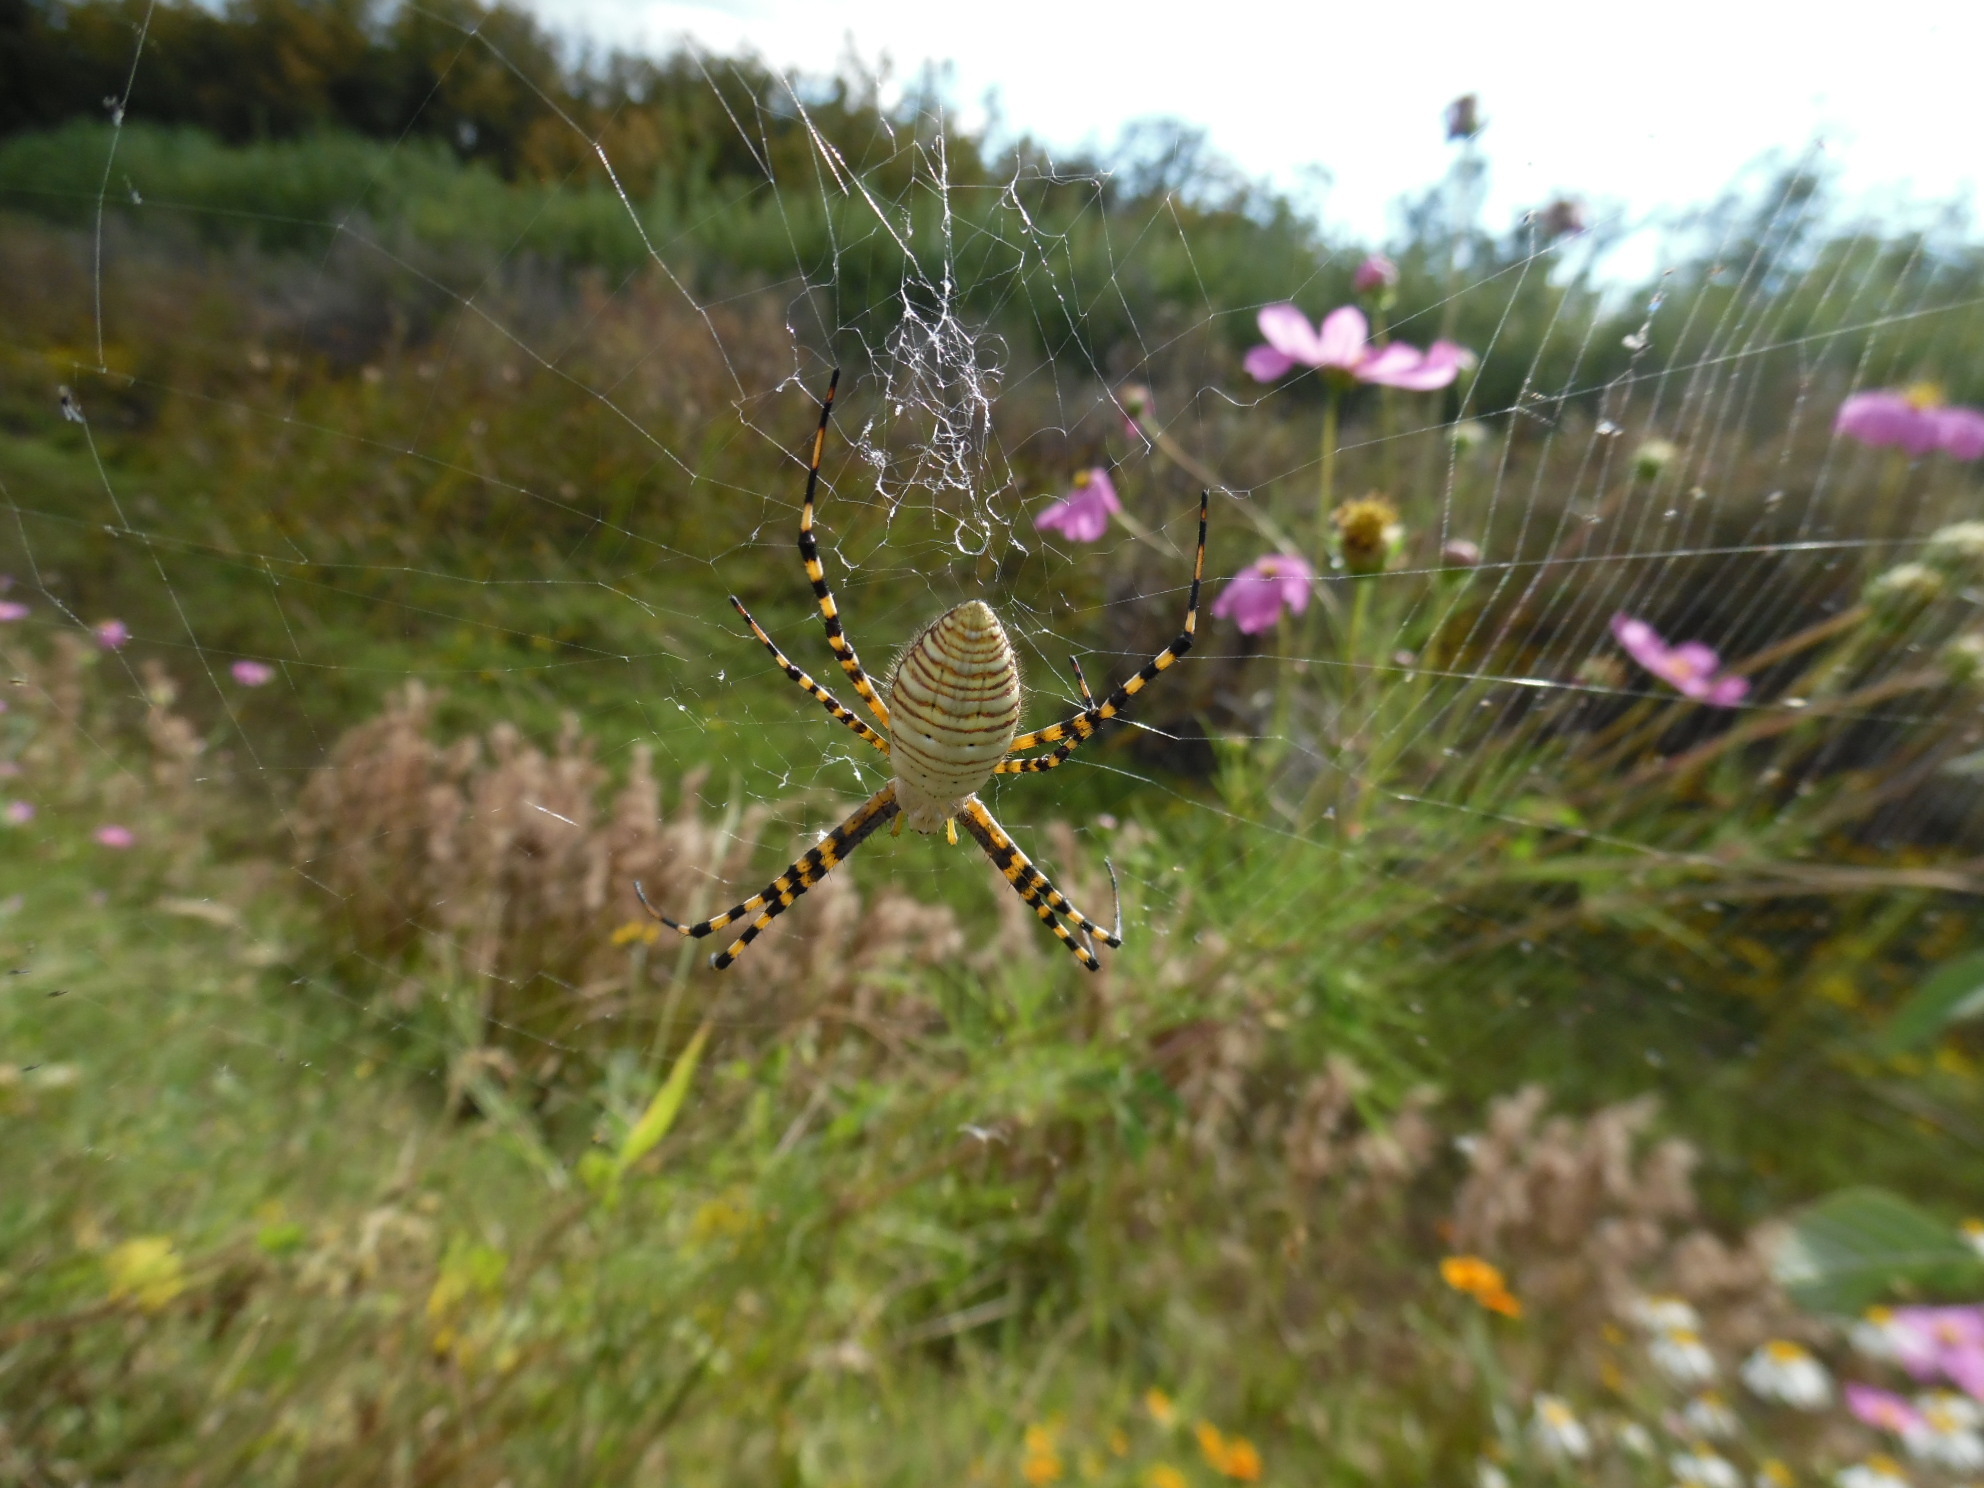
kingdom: Animalia
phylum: Arthropoda
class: Arachnida
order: Araneae
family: Araneidae
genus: Argiope
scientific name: Argiope trifasciata
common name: Banded garden spider
